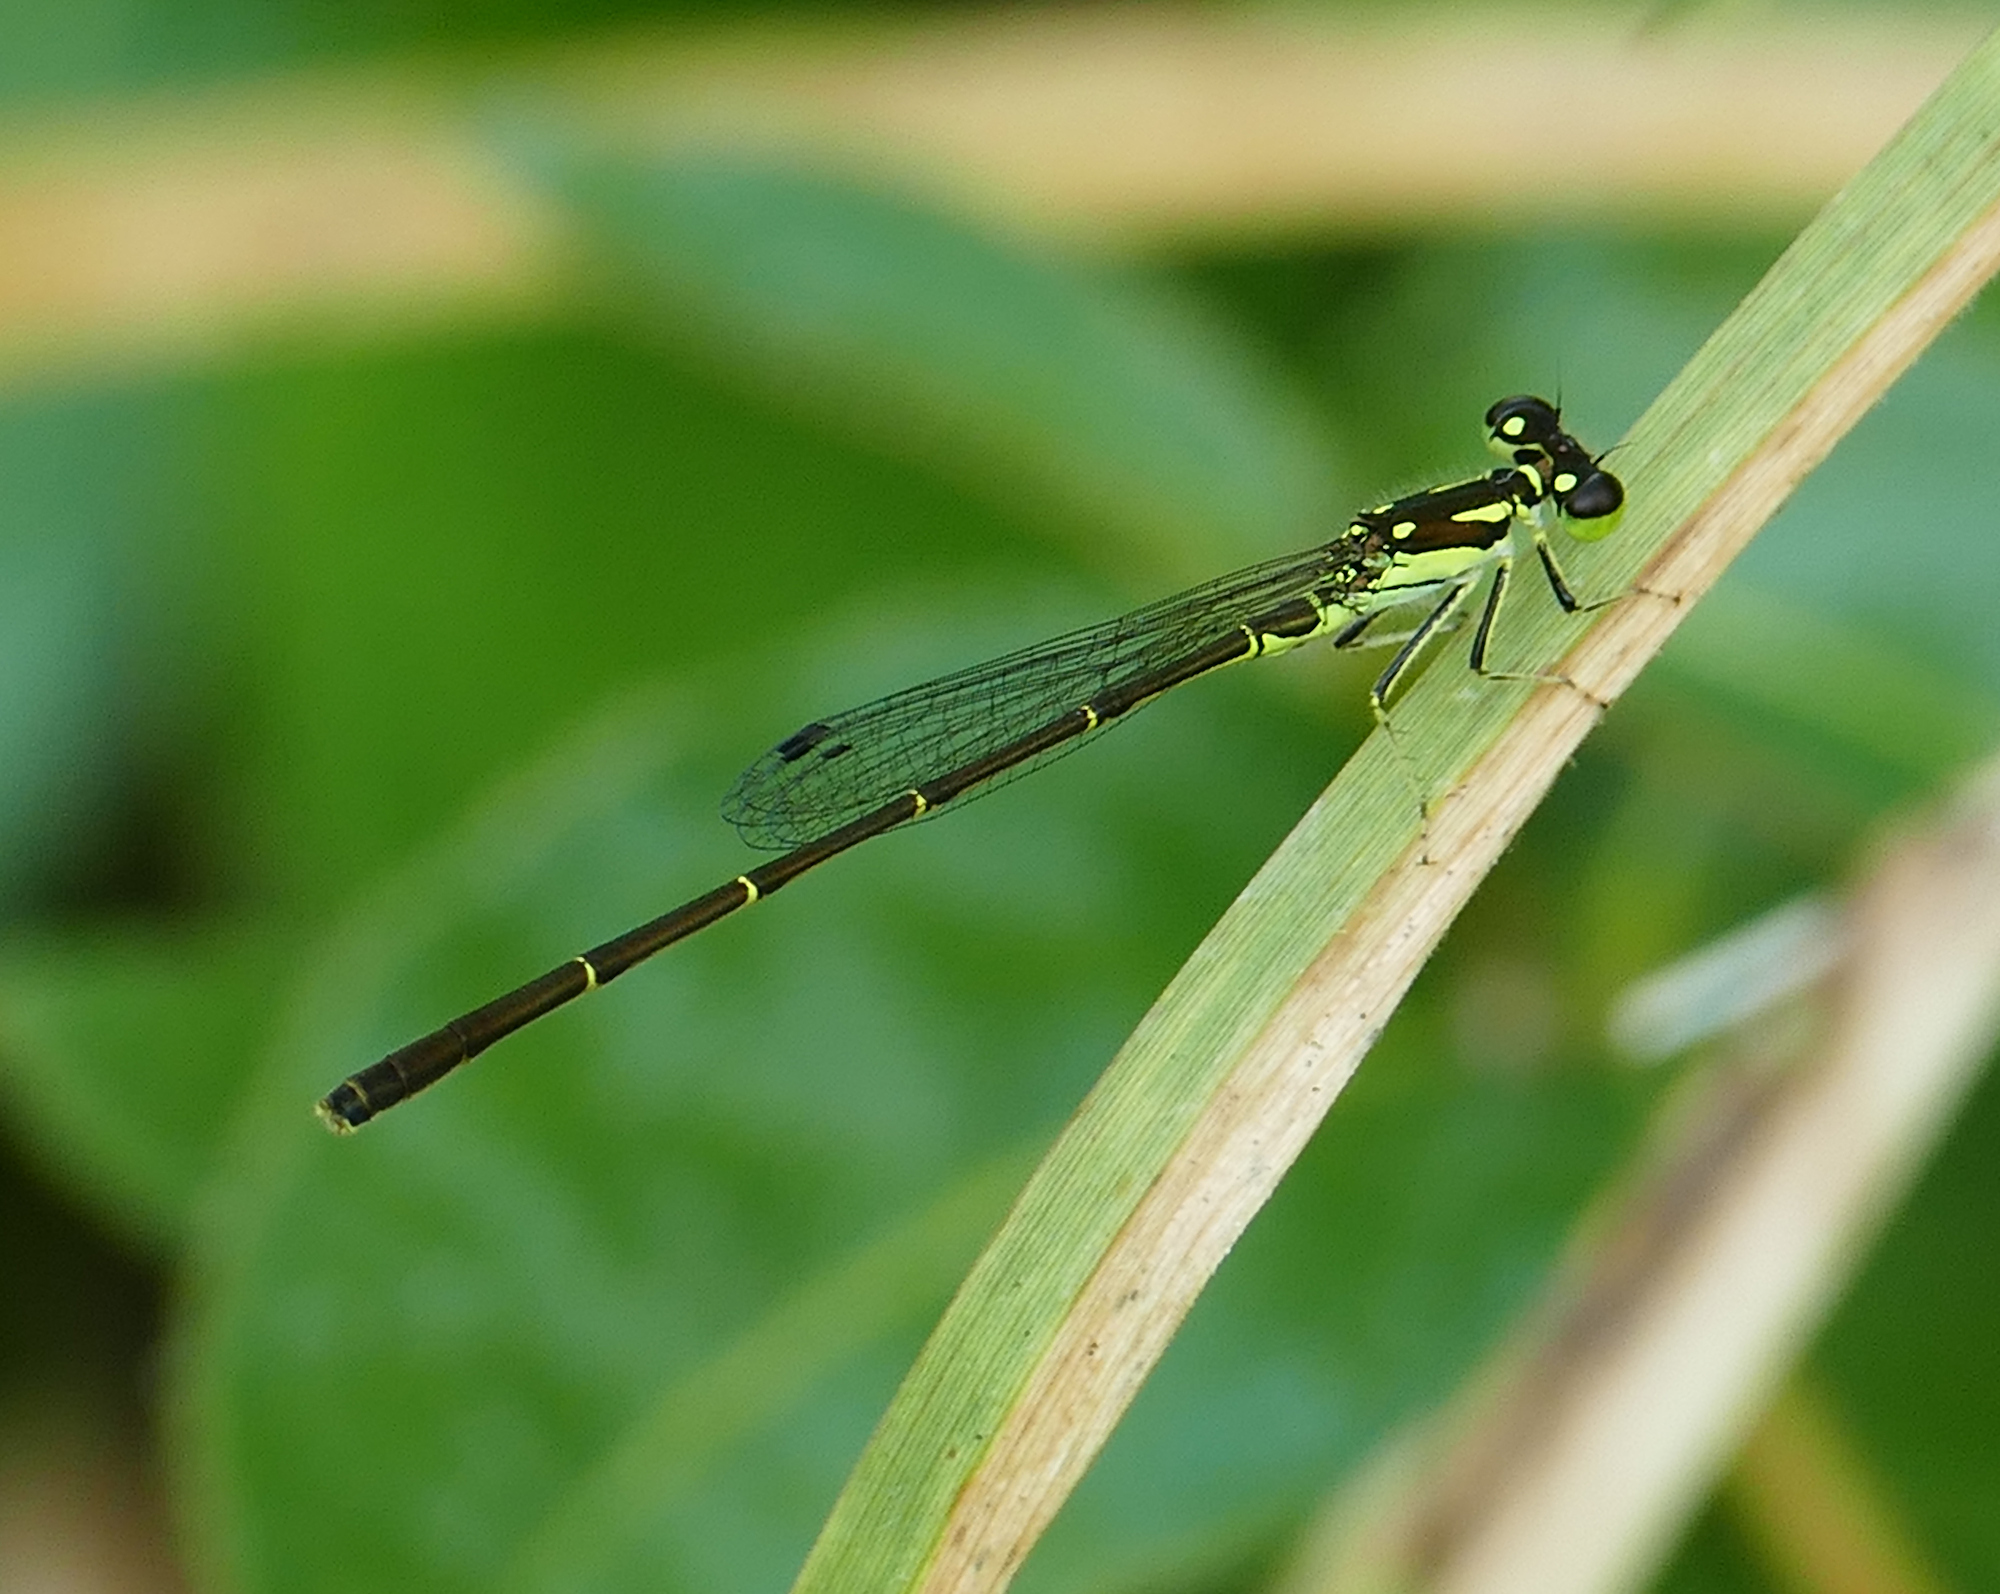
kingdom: Animalia
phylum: Arthropoda
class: Insecta
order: Odonata
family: Coenagrionidae
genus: Ischnura
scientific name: Ischnura posita
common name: Fragile forktail
